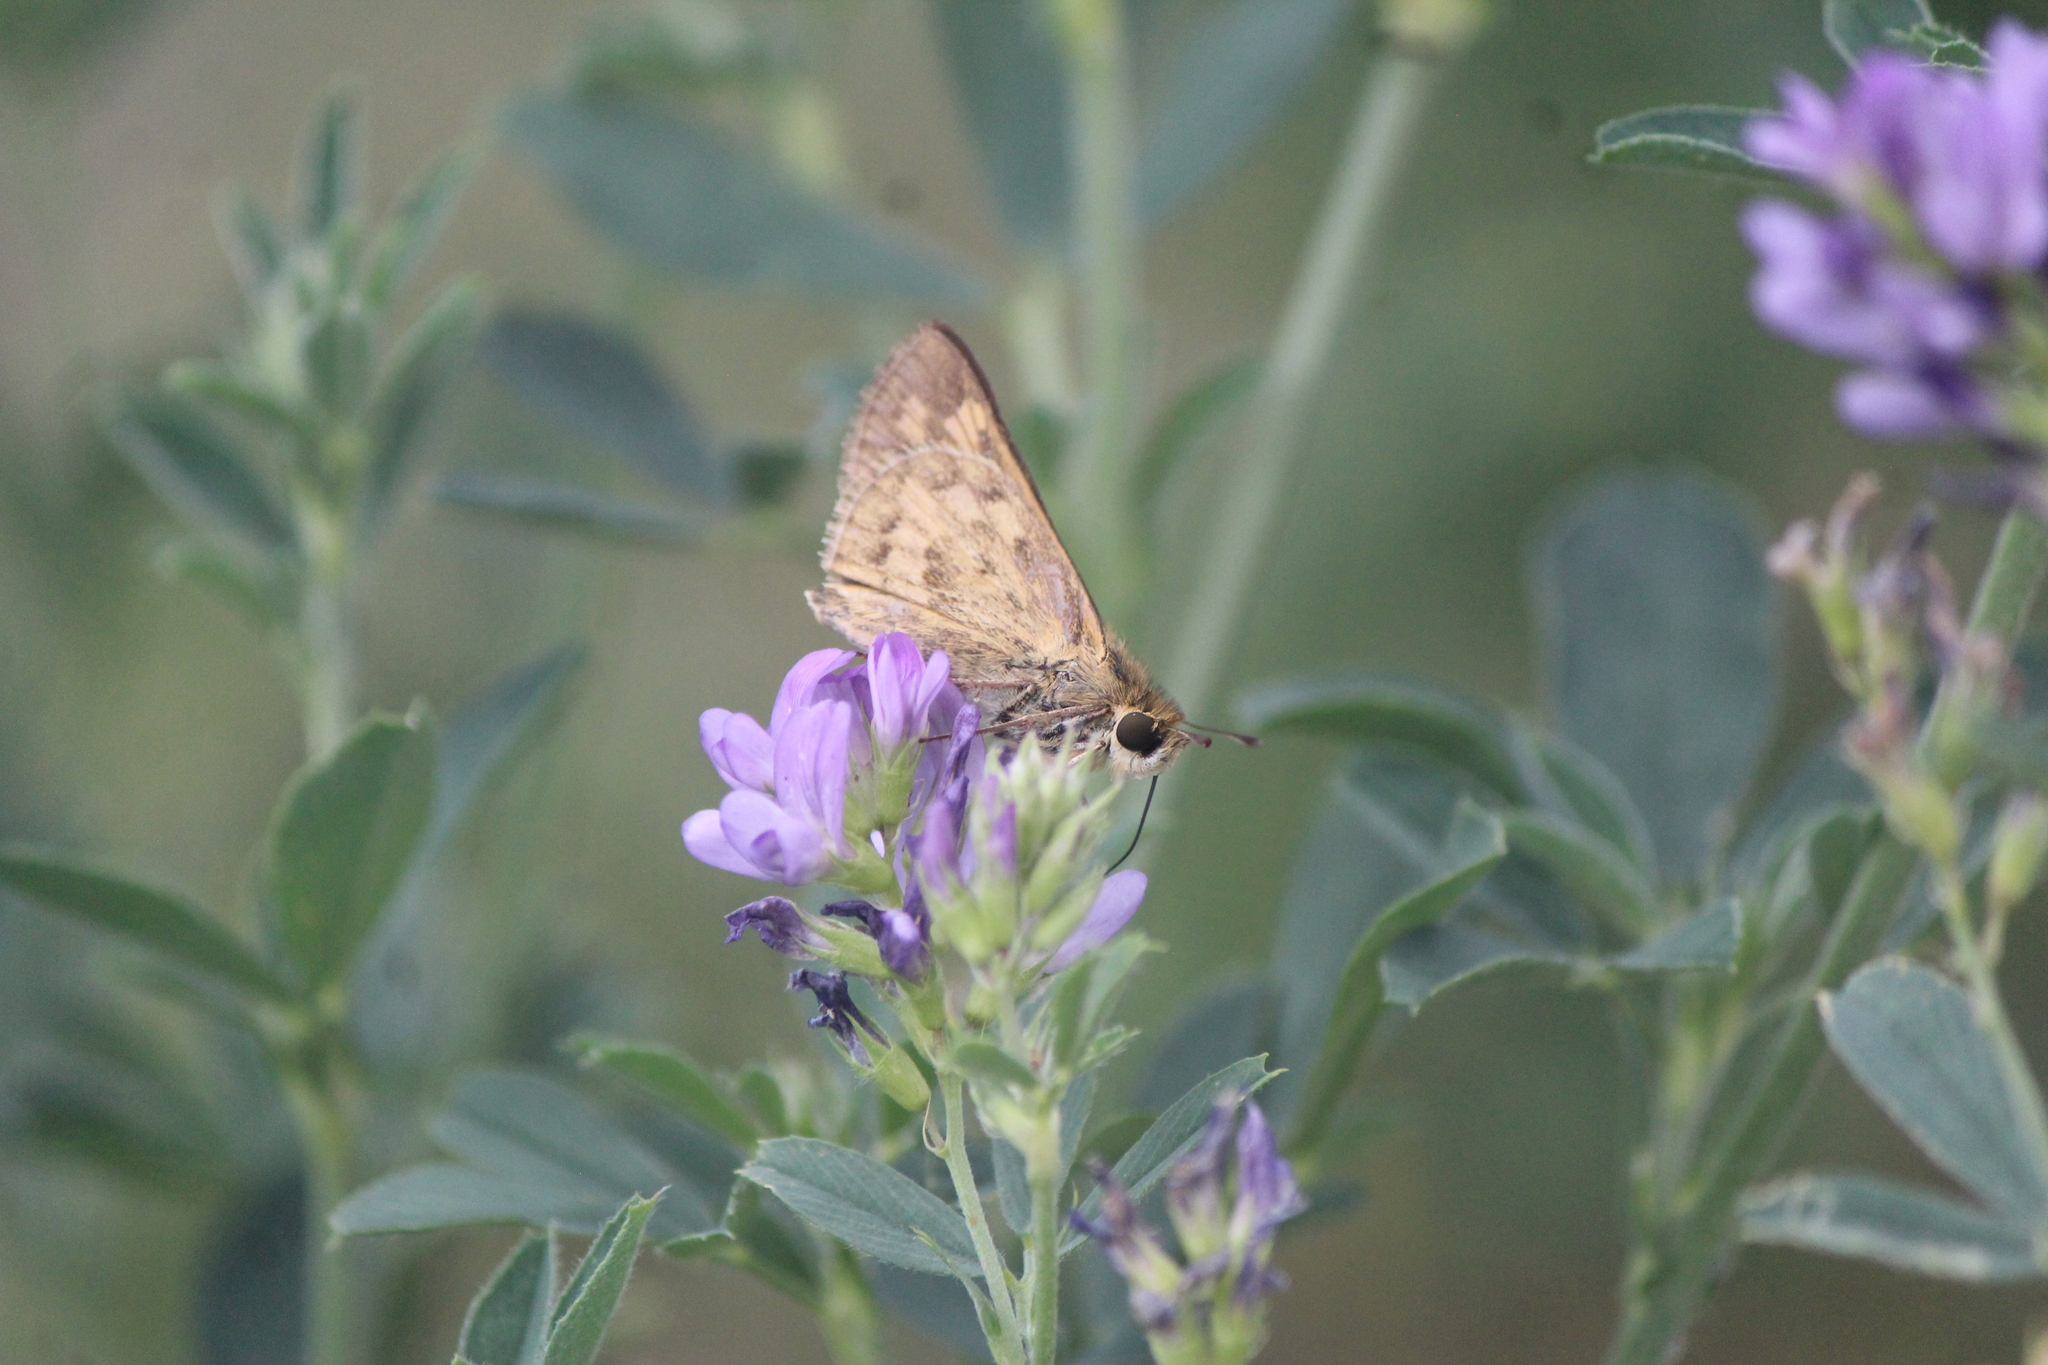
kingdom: Animalia
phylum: Arthropoda
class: Insecta
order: Lepidoptera
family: Hesperiidae
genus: Hylephila
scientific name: Hylephila phyleus
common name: Fiery skipper
